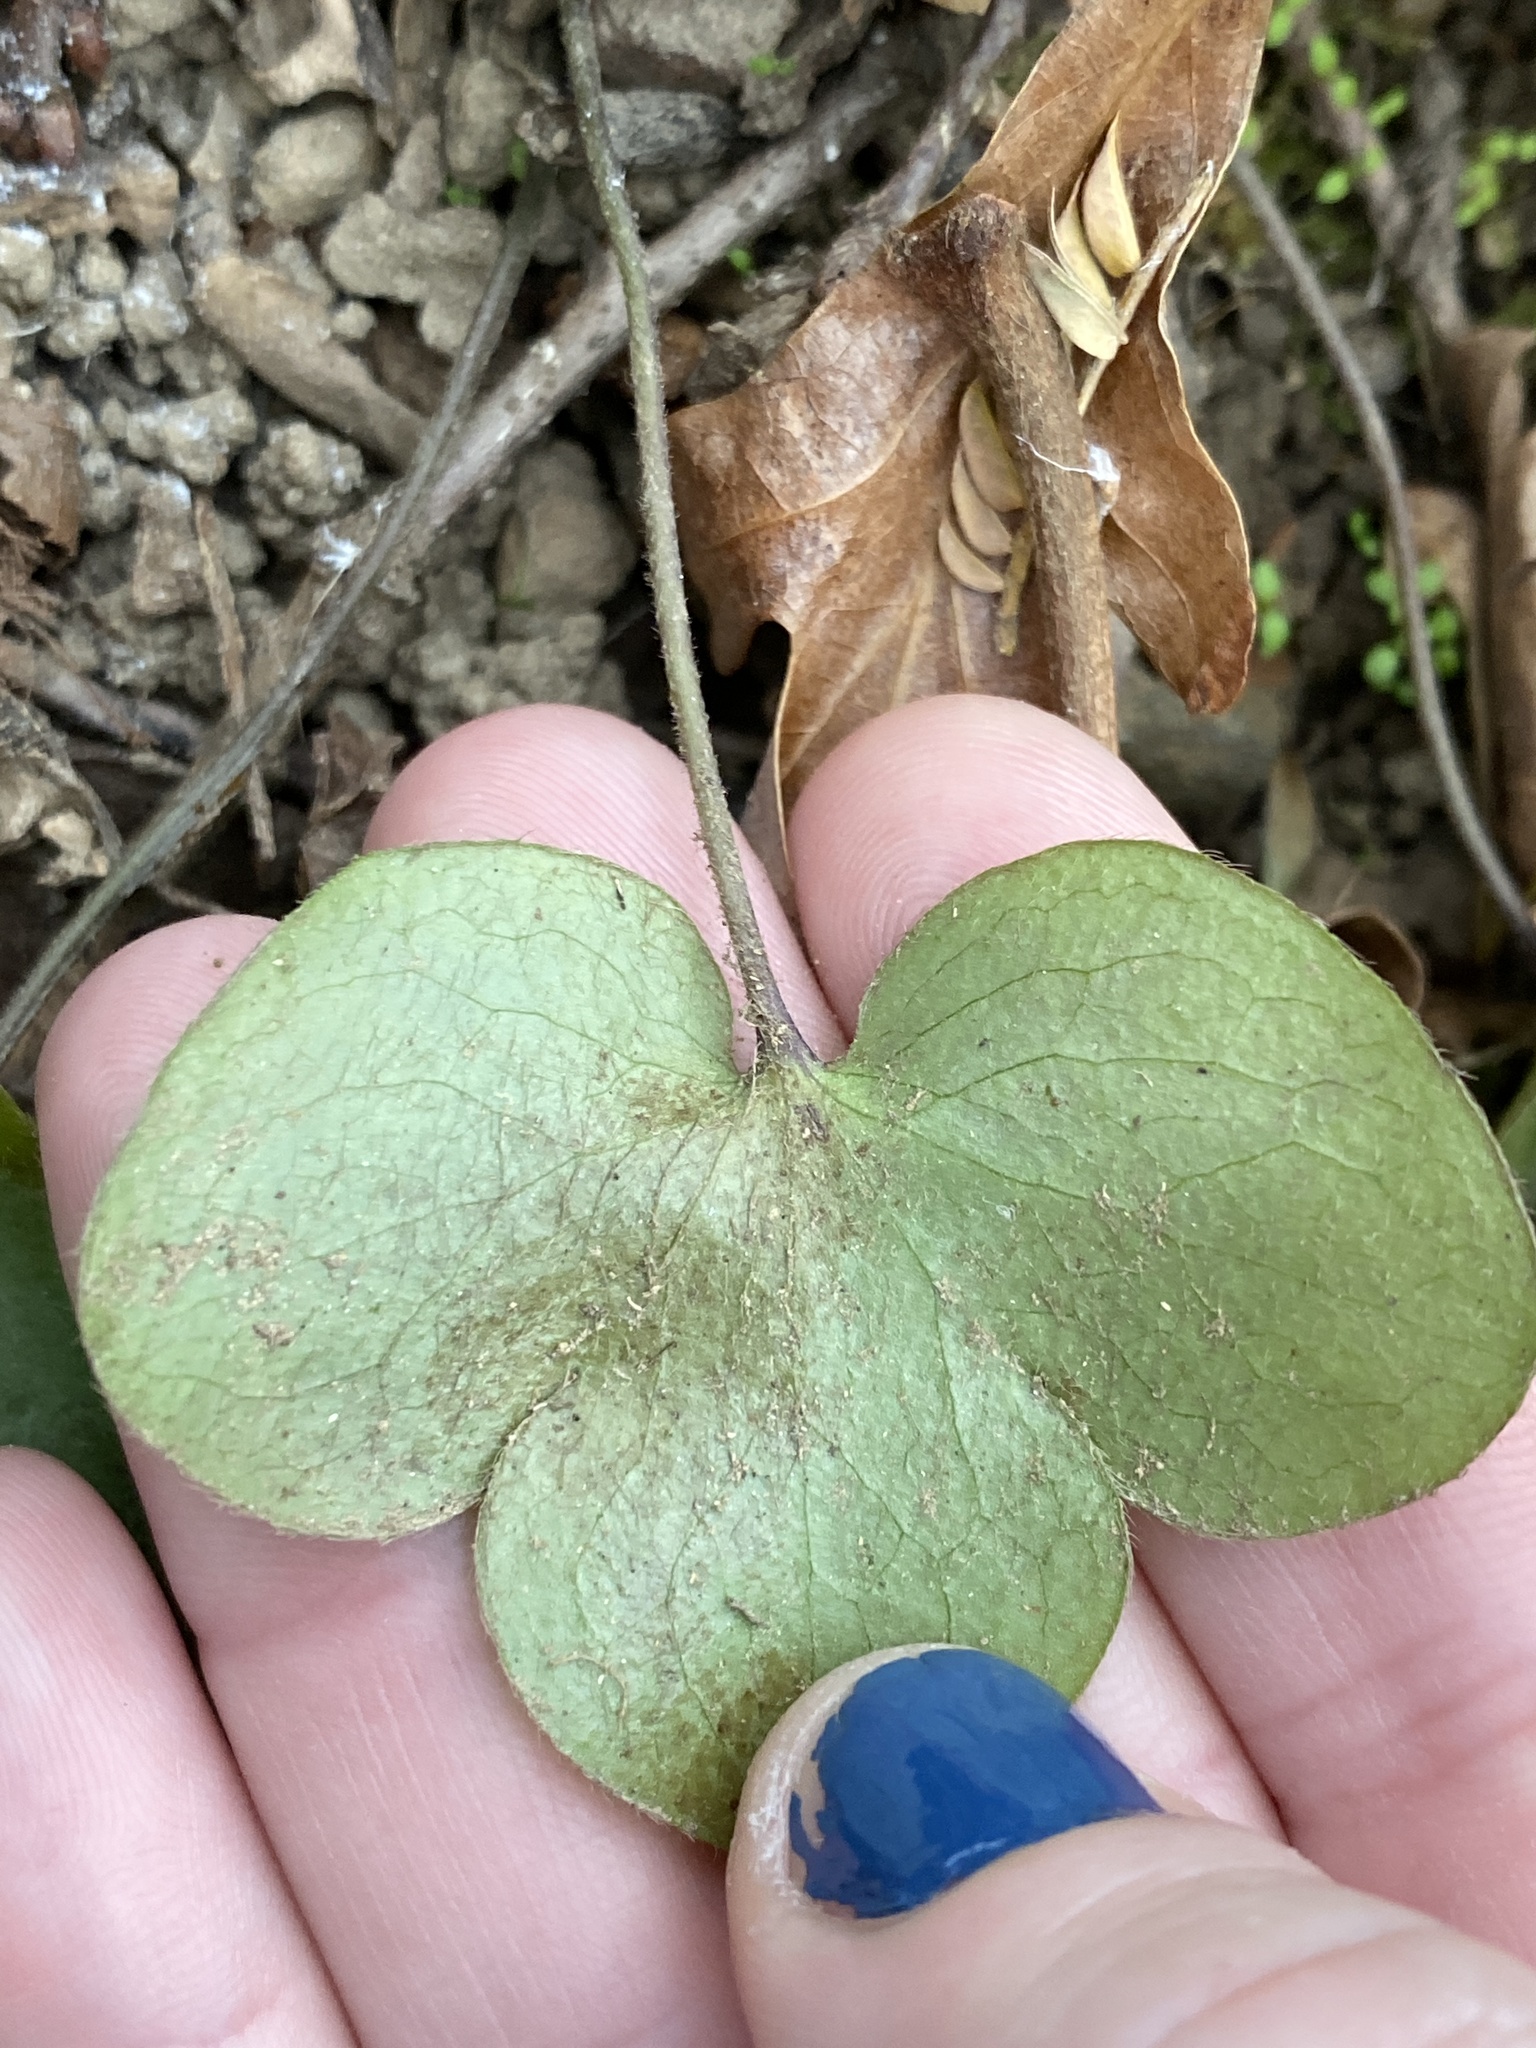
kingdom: Plantae
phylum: Tracheophyta
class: Magnoliopsida
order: Ranunculales
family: Ranunculaceae
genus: Hepatica
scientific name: Hepatica americana
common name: American hepatica
